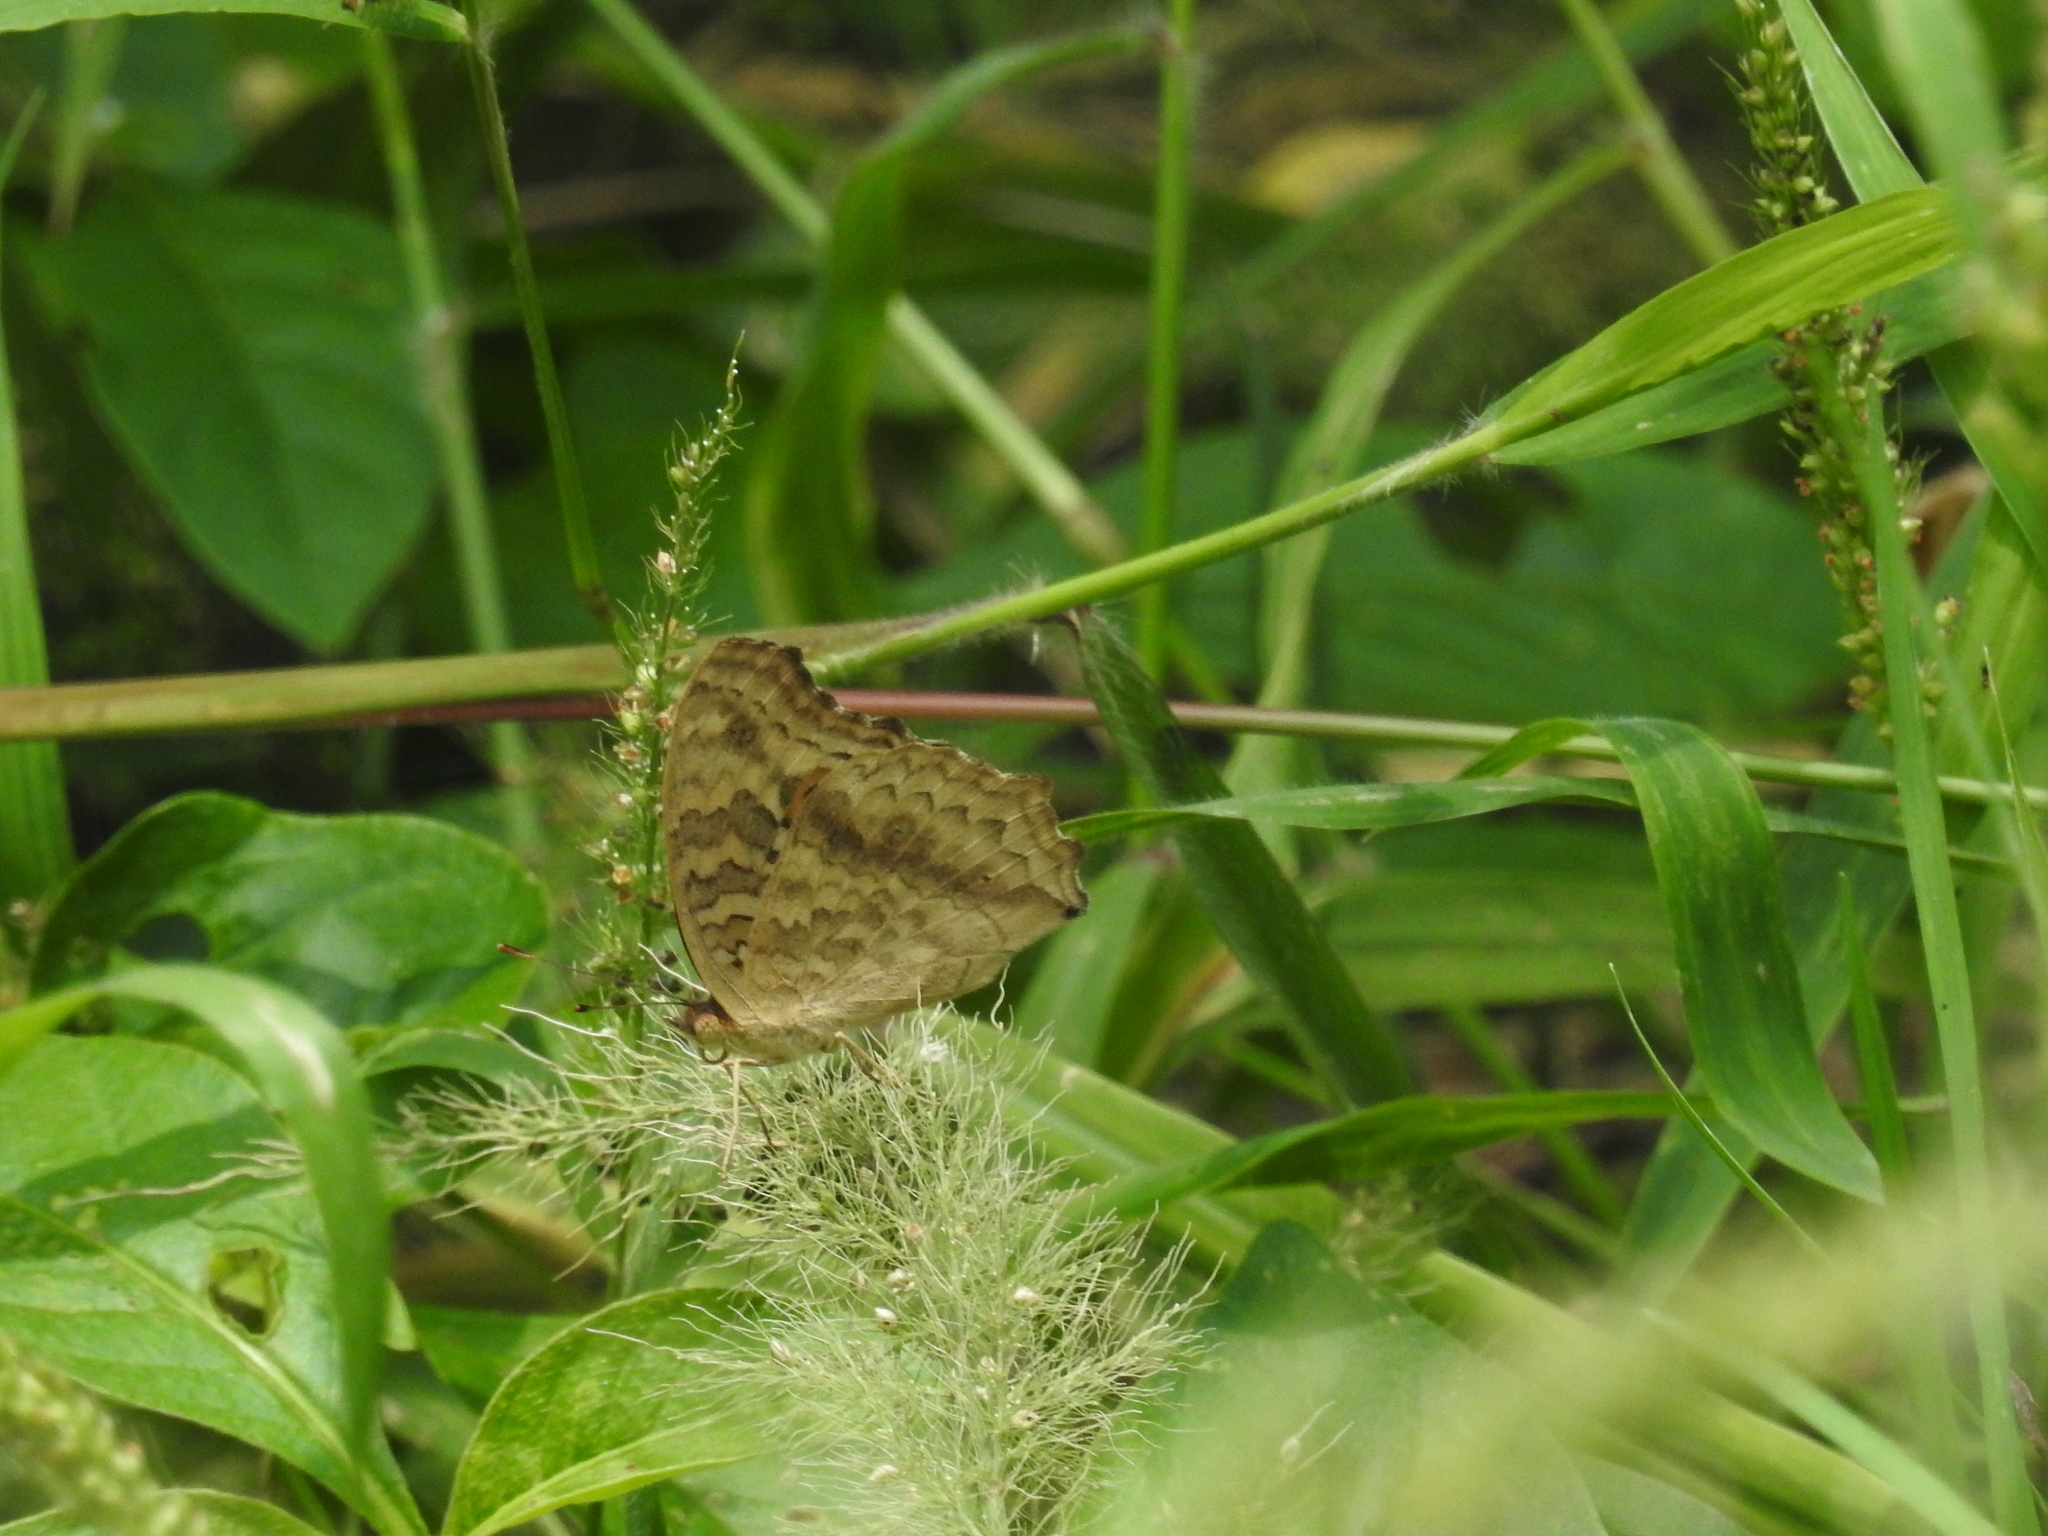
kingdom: Animalia
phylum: Arthropoda
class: Insecta
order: Lepidoptera
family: Nymphalidae
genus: Junonia
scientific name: Junonia lemonias
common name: Lemon pansy
